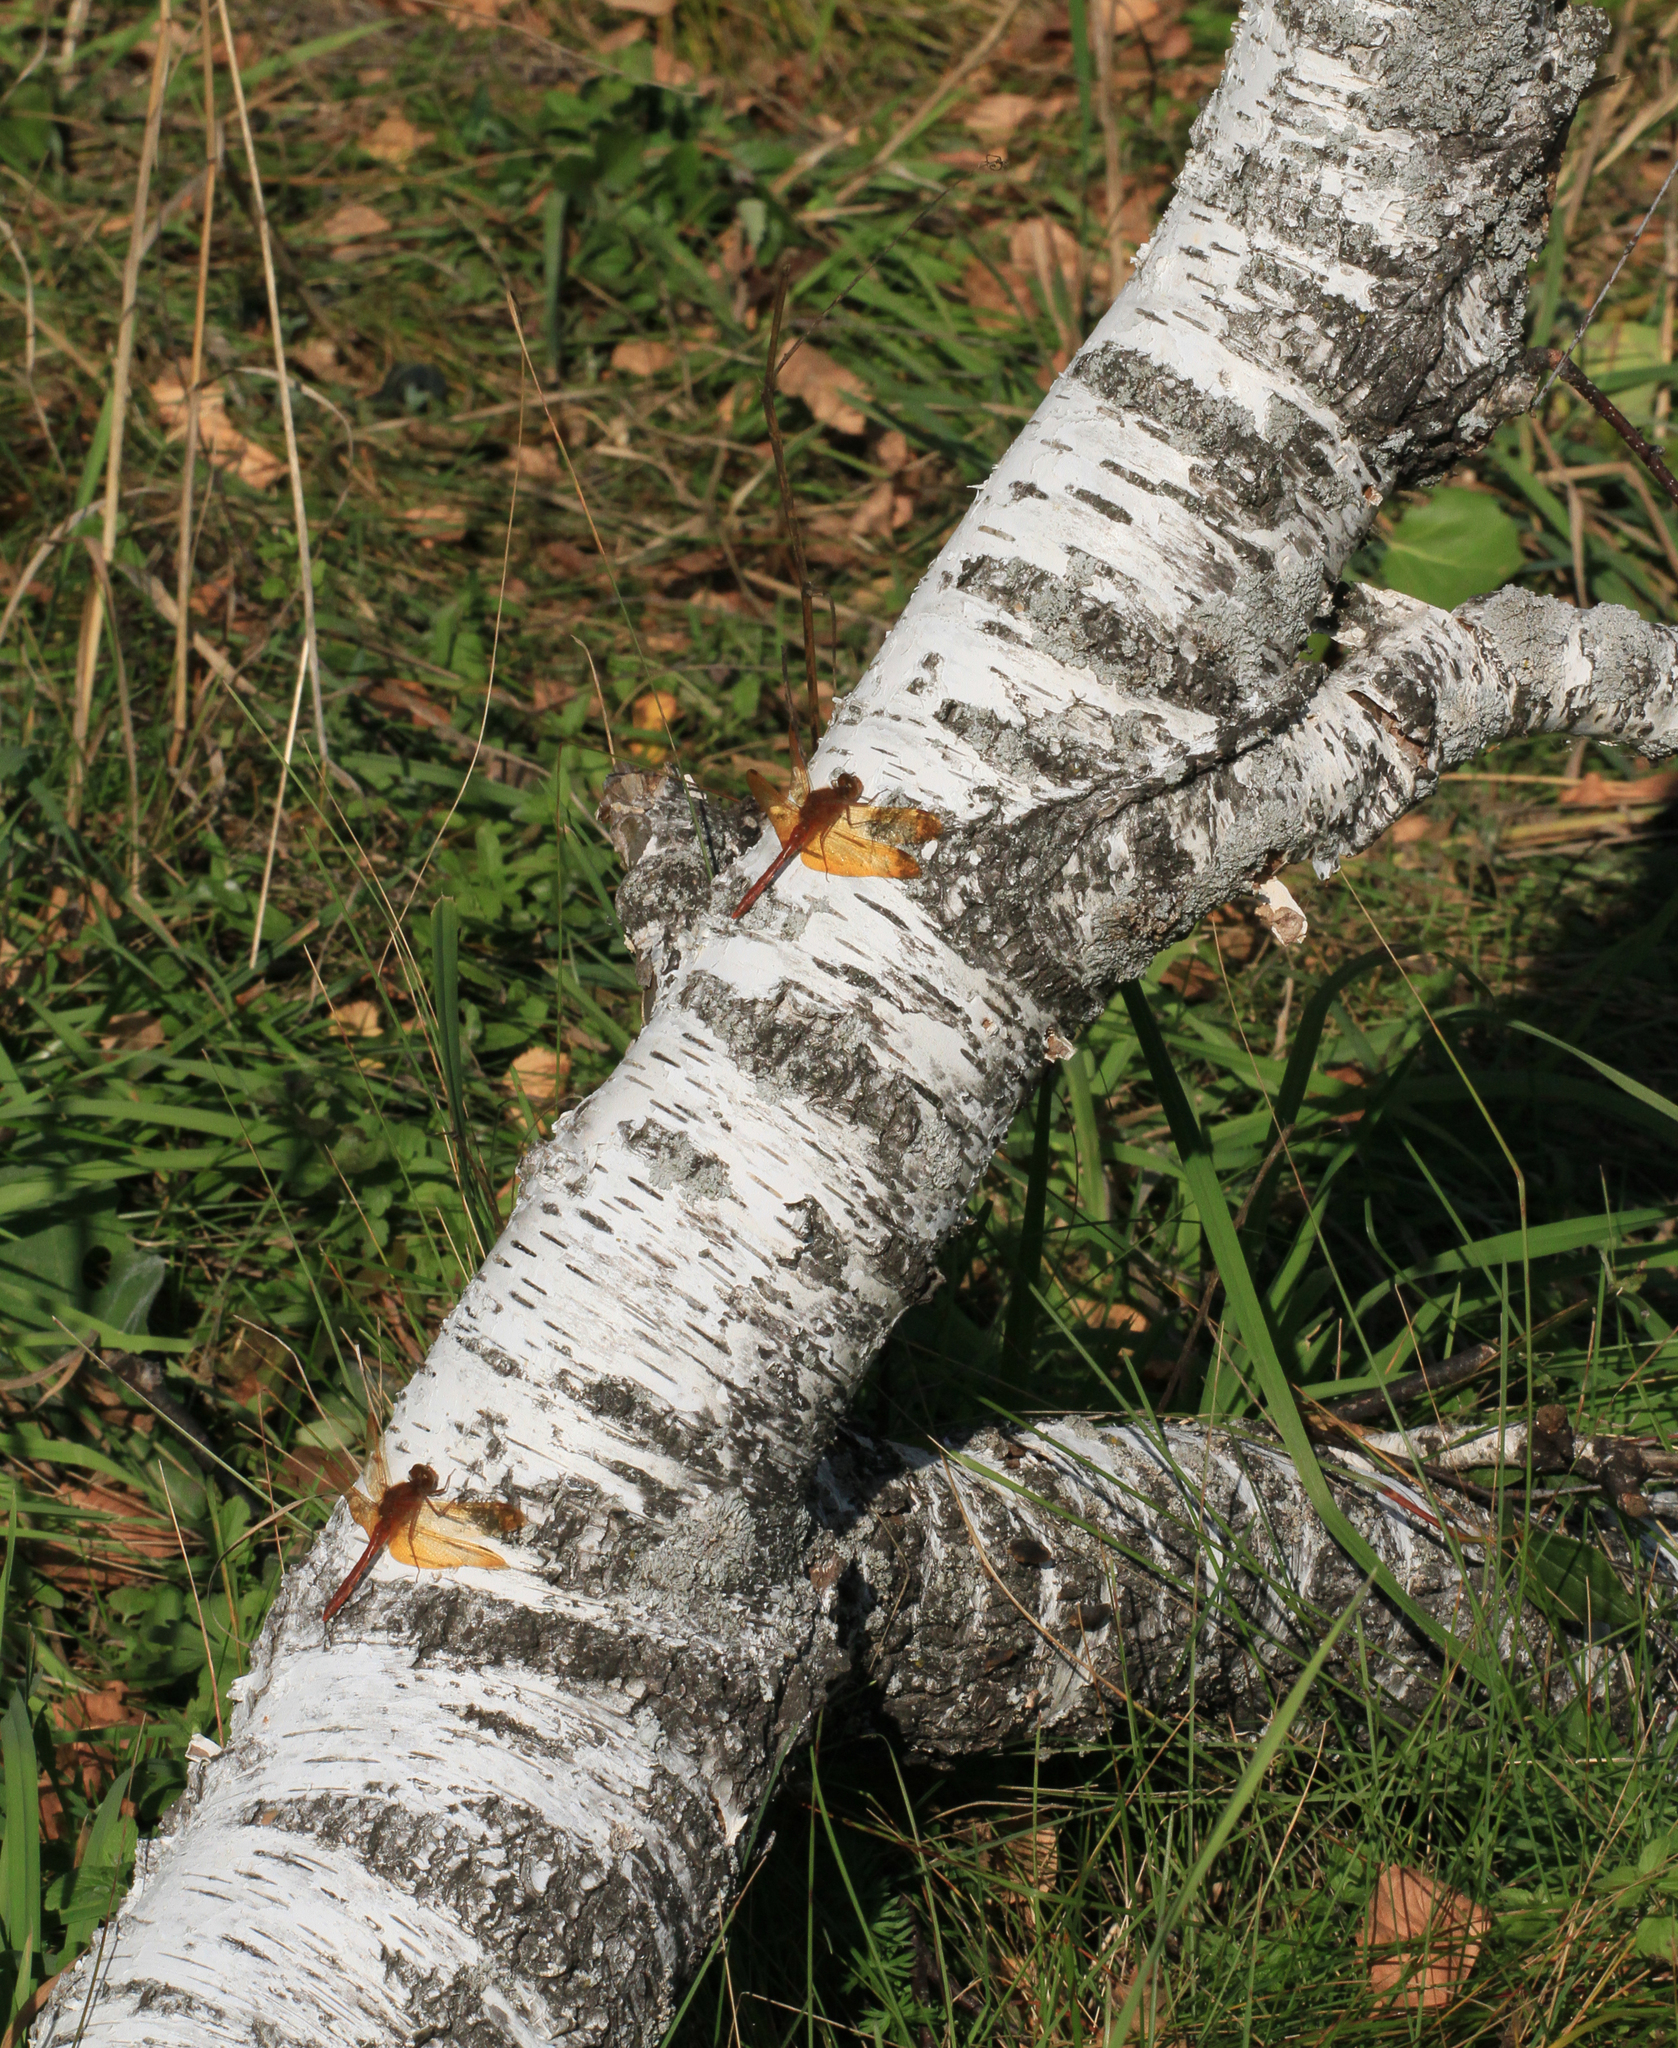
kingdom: Animalia
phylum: Arthropoda
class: Insecta
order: Odonata
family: Libellulidae
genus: Sympetrum
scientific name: Sympetrum croceolum
